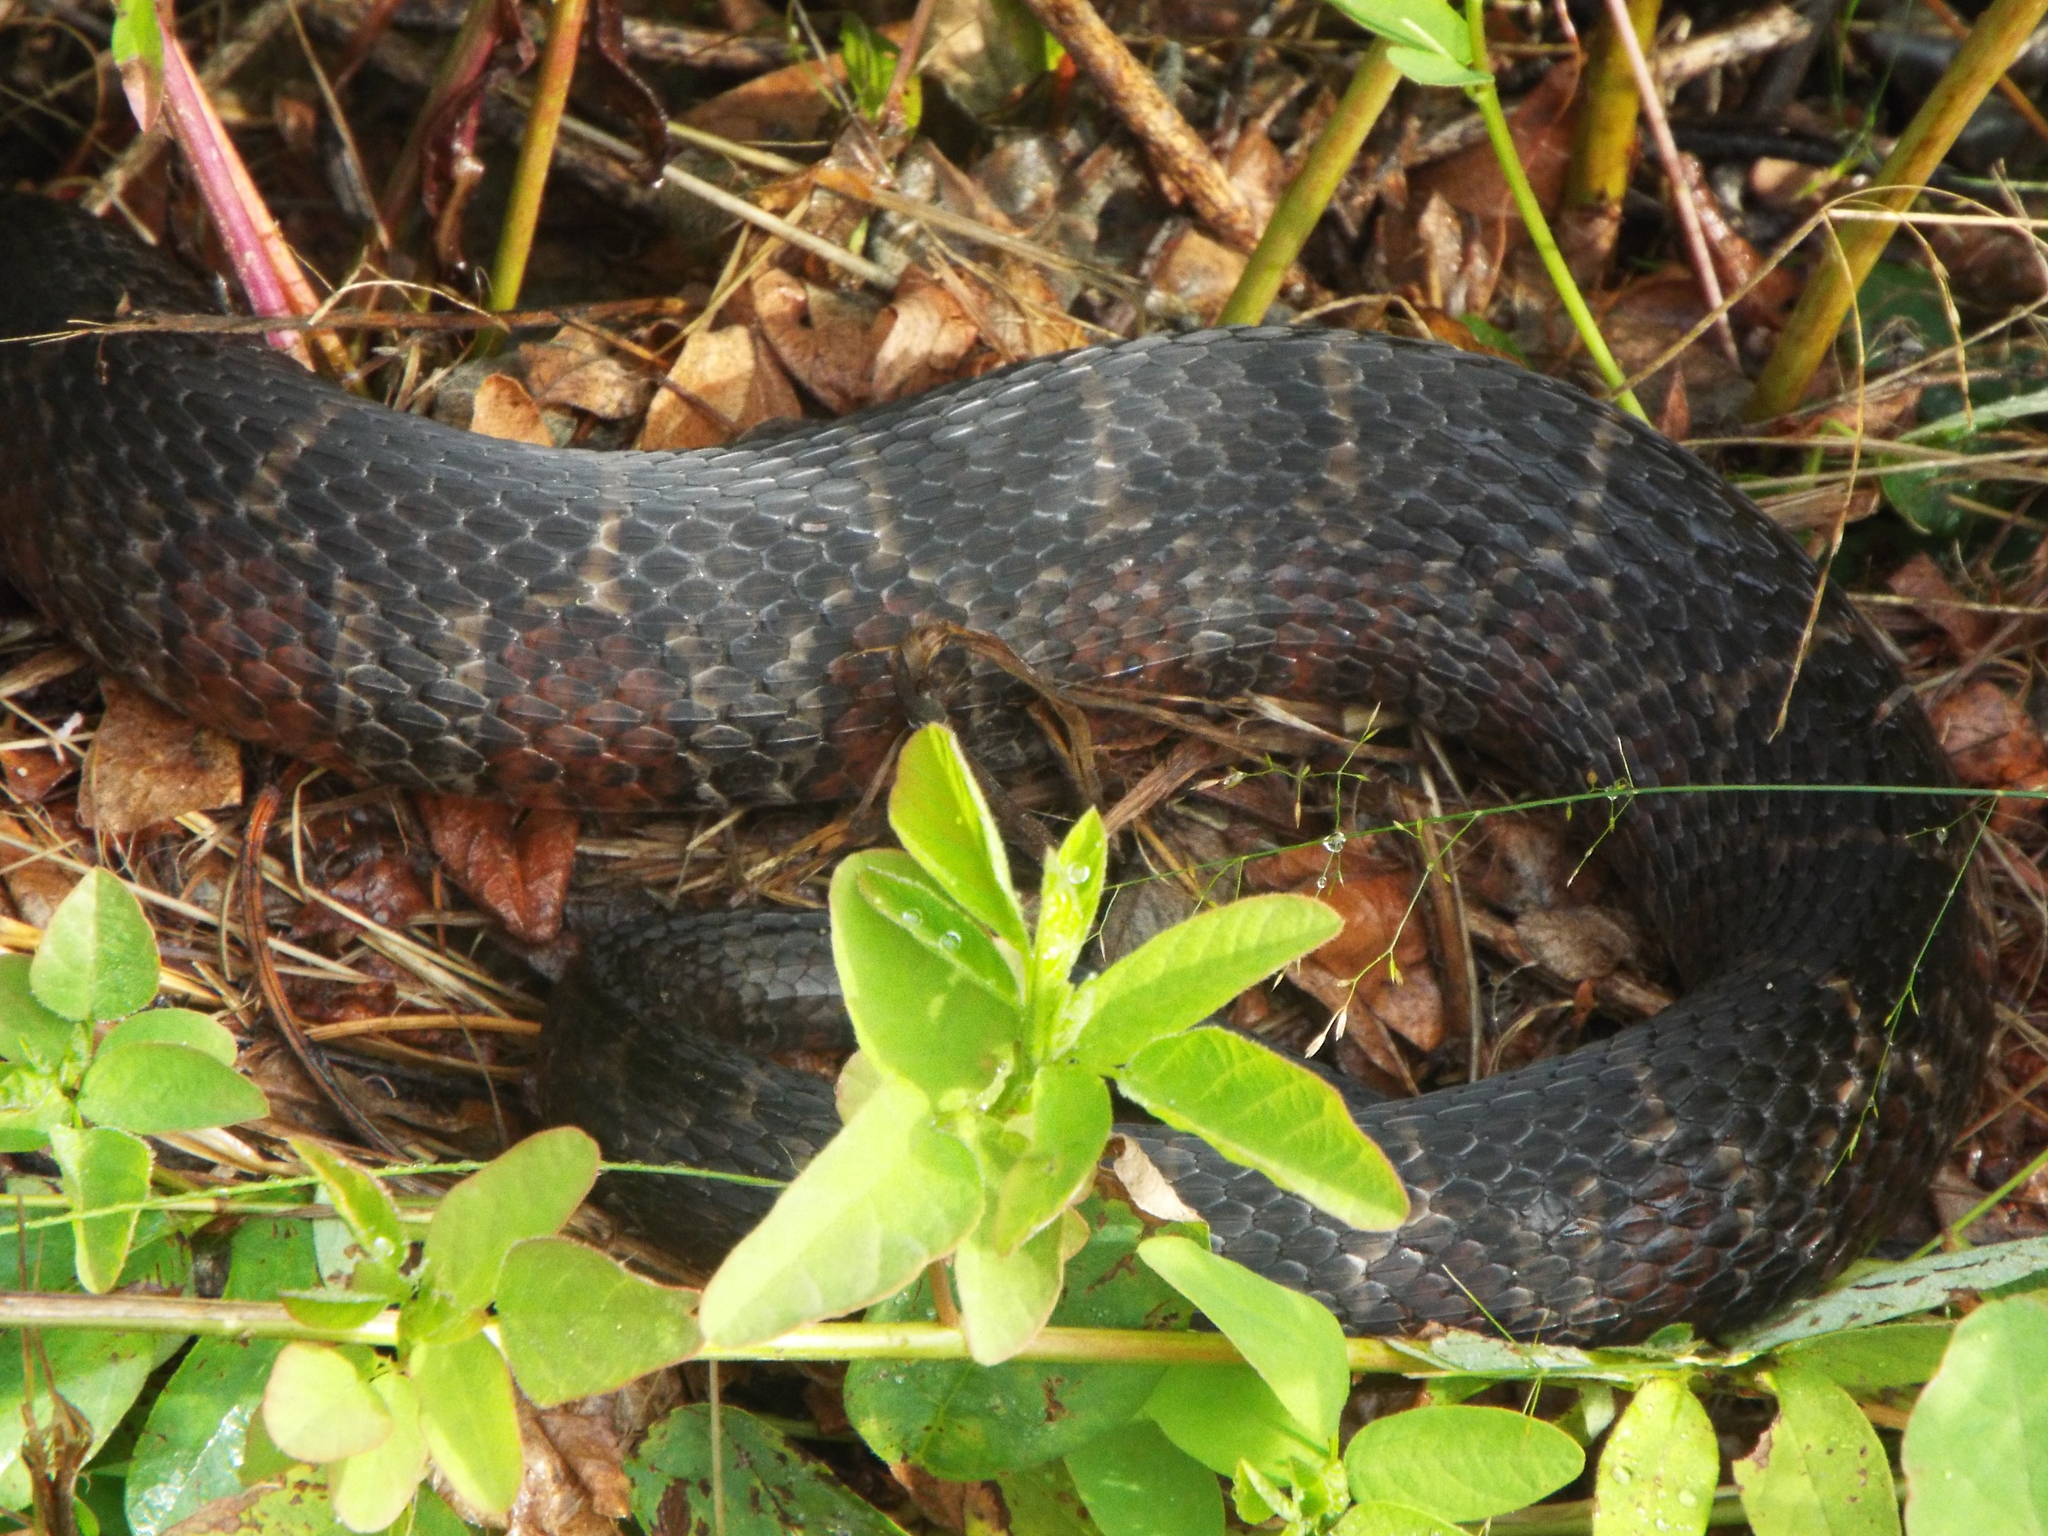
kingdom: Animalia
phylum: Chordata
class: Squamata
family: Colubridae
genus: Nerodia
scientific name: Nerodia sipedon
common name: Northern water snake
